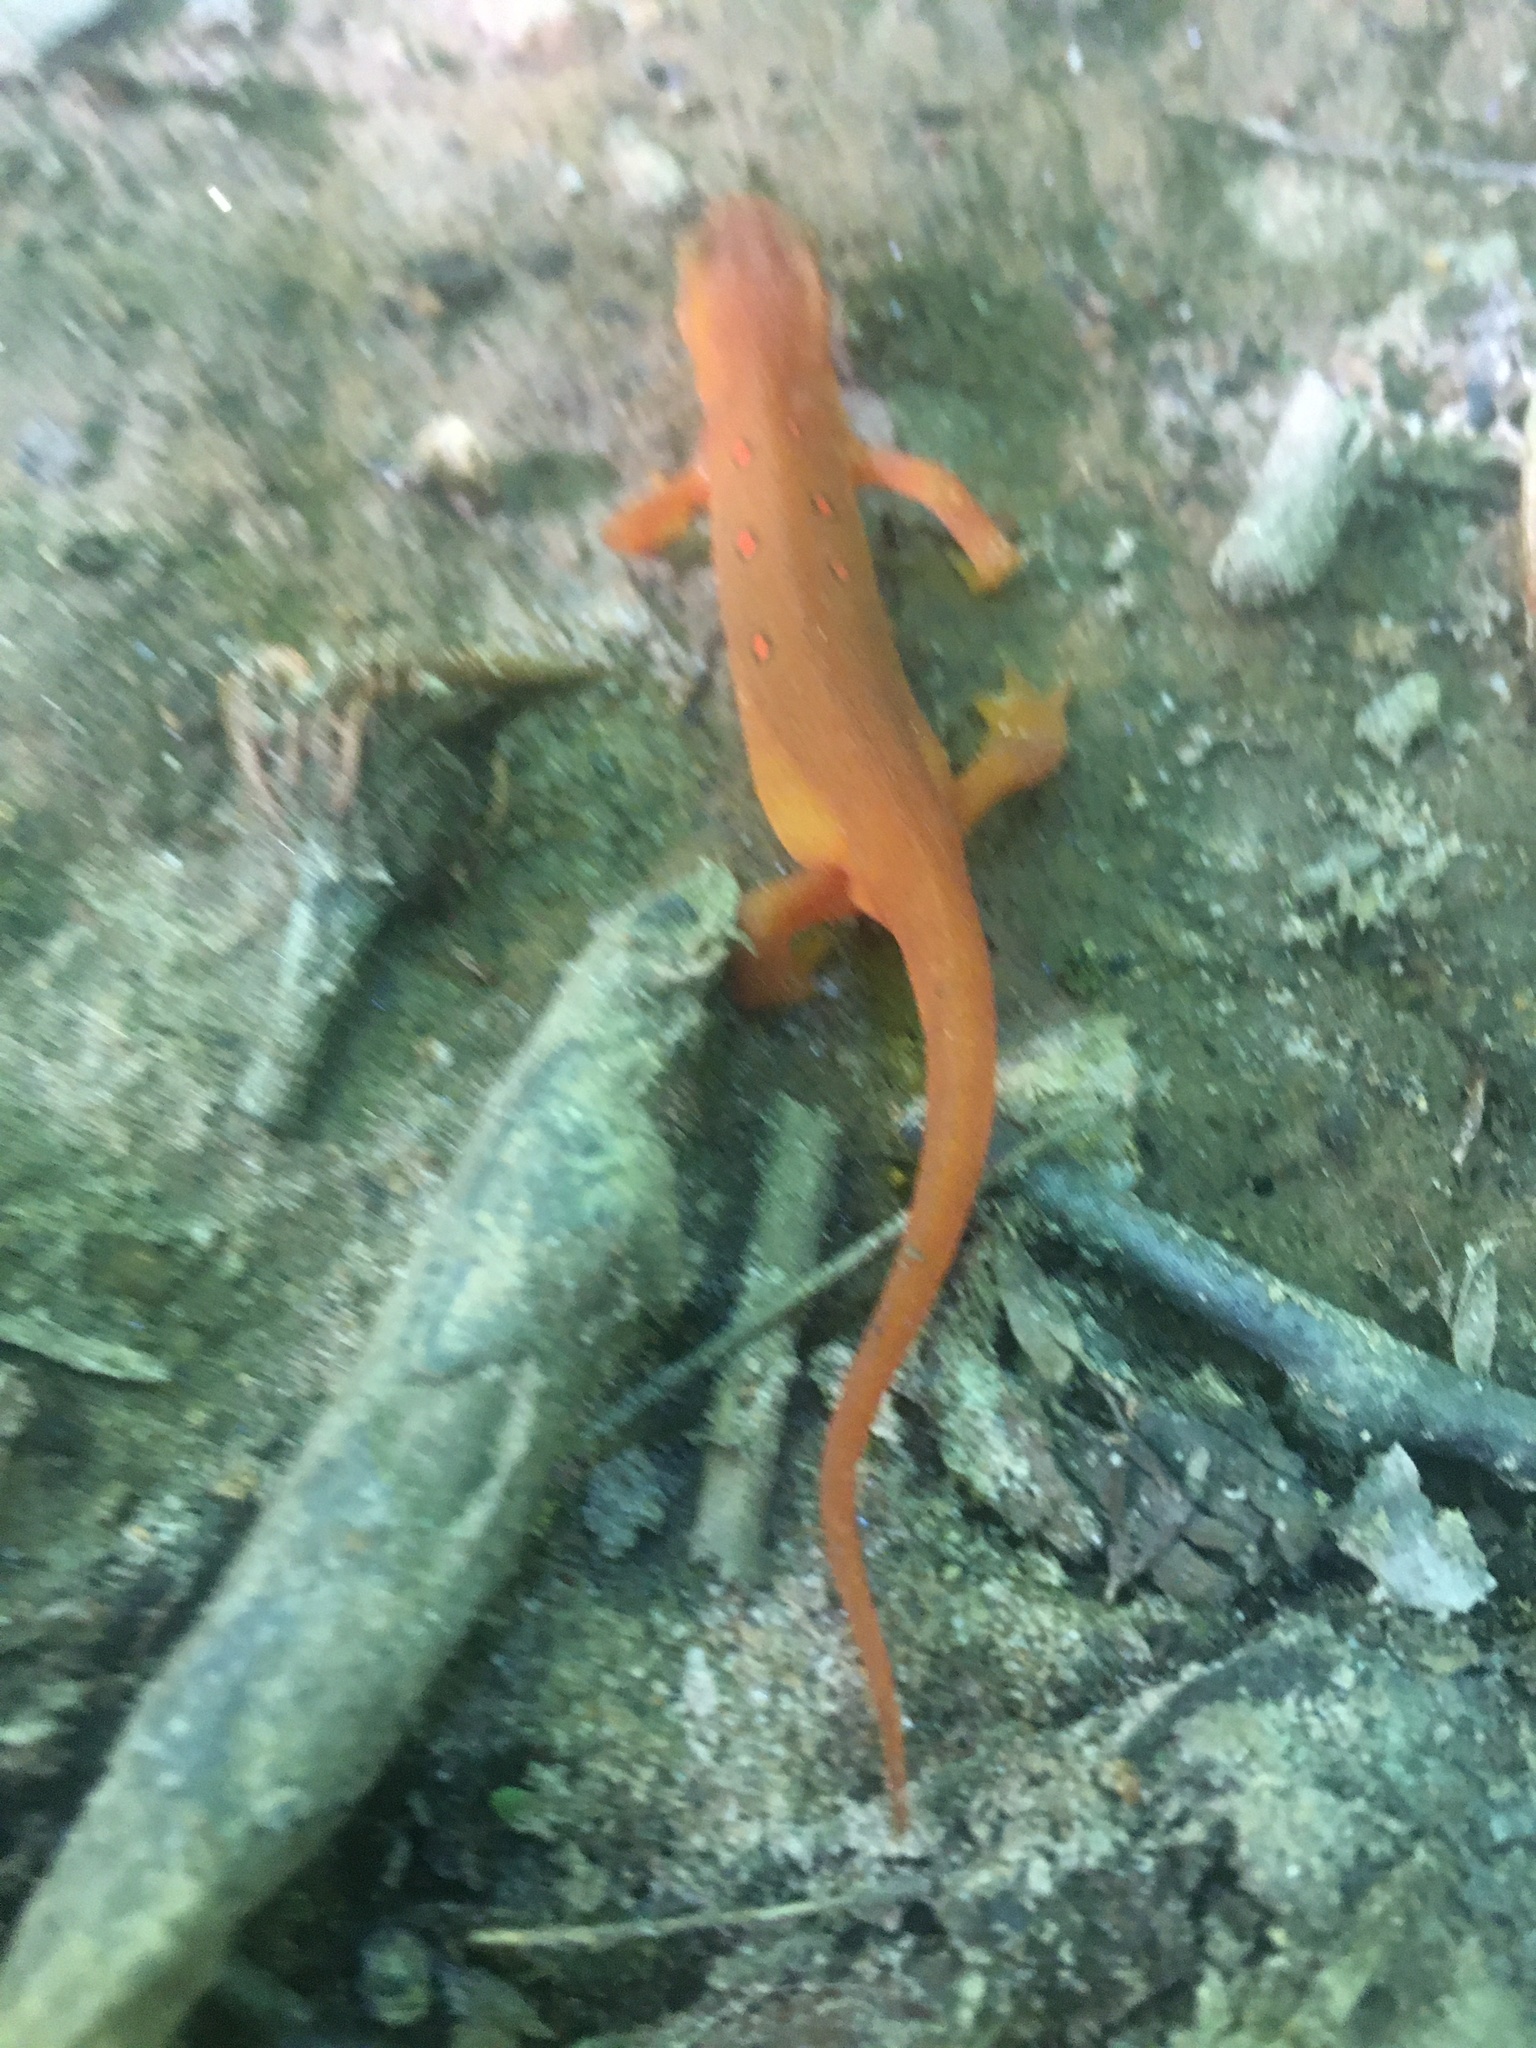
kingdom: Animalia
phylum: Chordata
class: Amphibia
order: Caudata
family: Salamandridae
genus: Notophthalmus
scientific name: Notophthalmus viridescens
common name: Eastern newt
